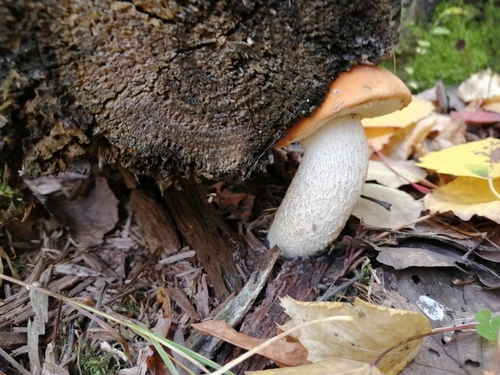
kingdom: Fungi
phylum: Basidiomycota
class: Agaricomycetes
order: Boletales
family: Boletaceae
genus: Leccinum
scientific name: Leccinum albostipitatum
